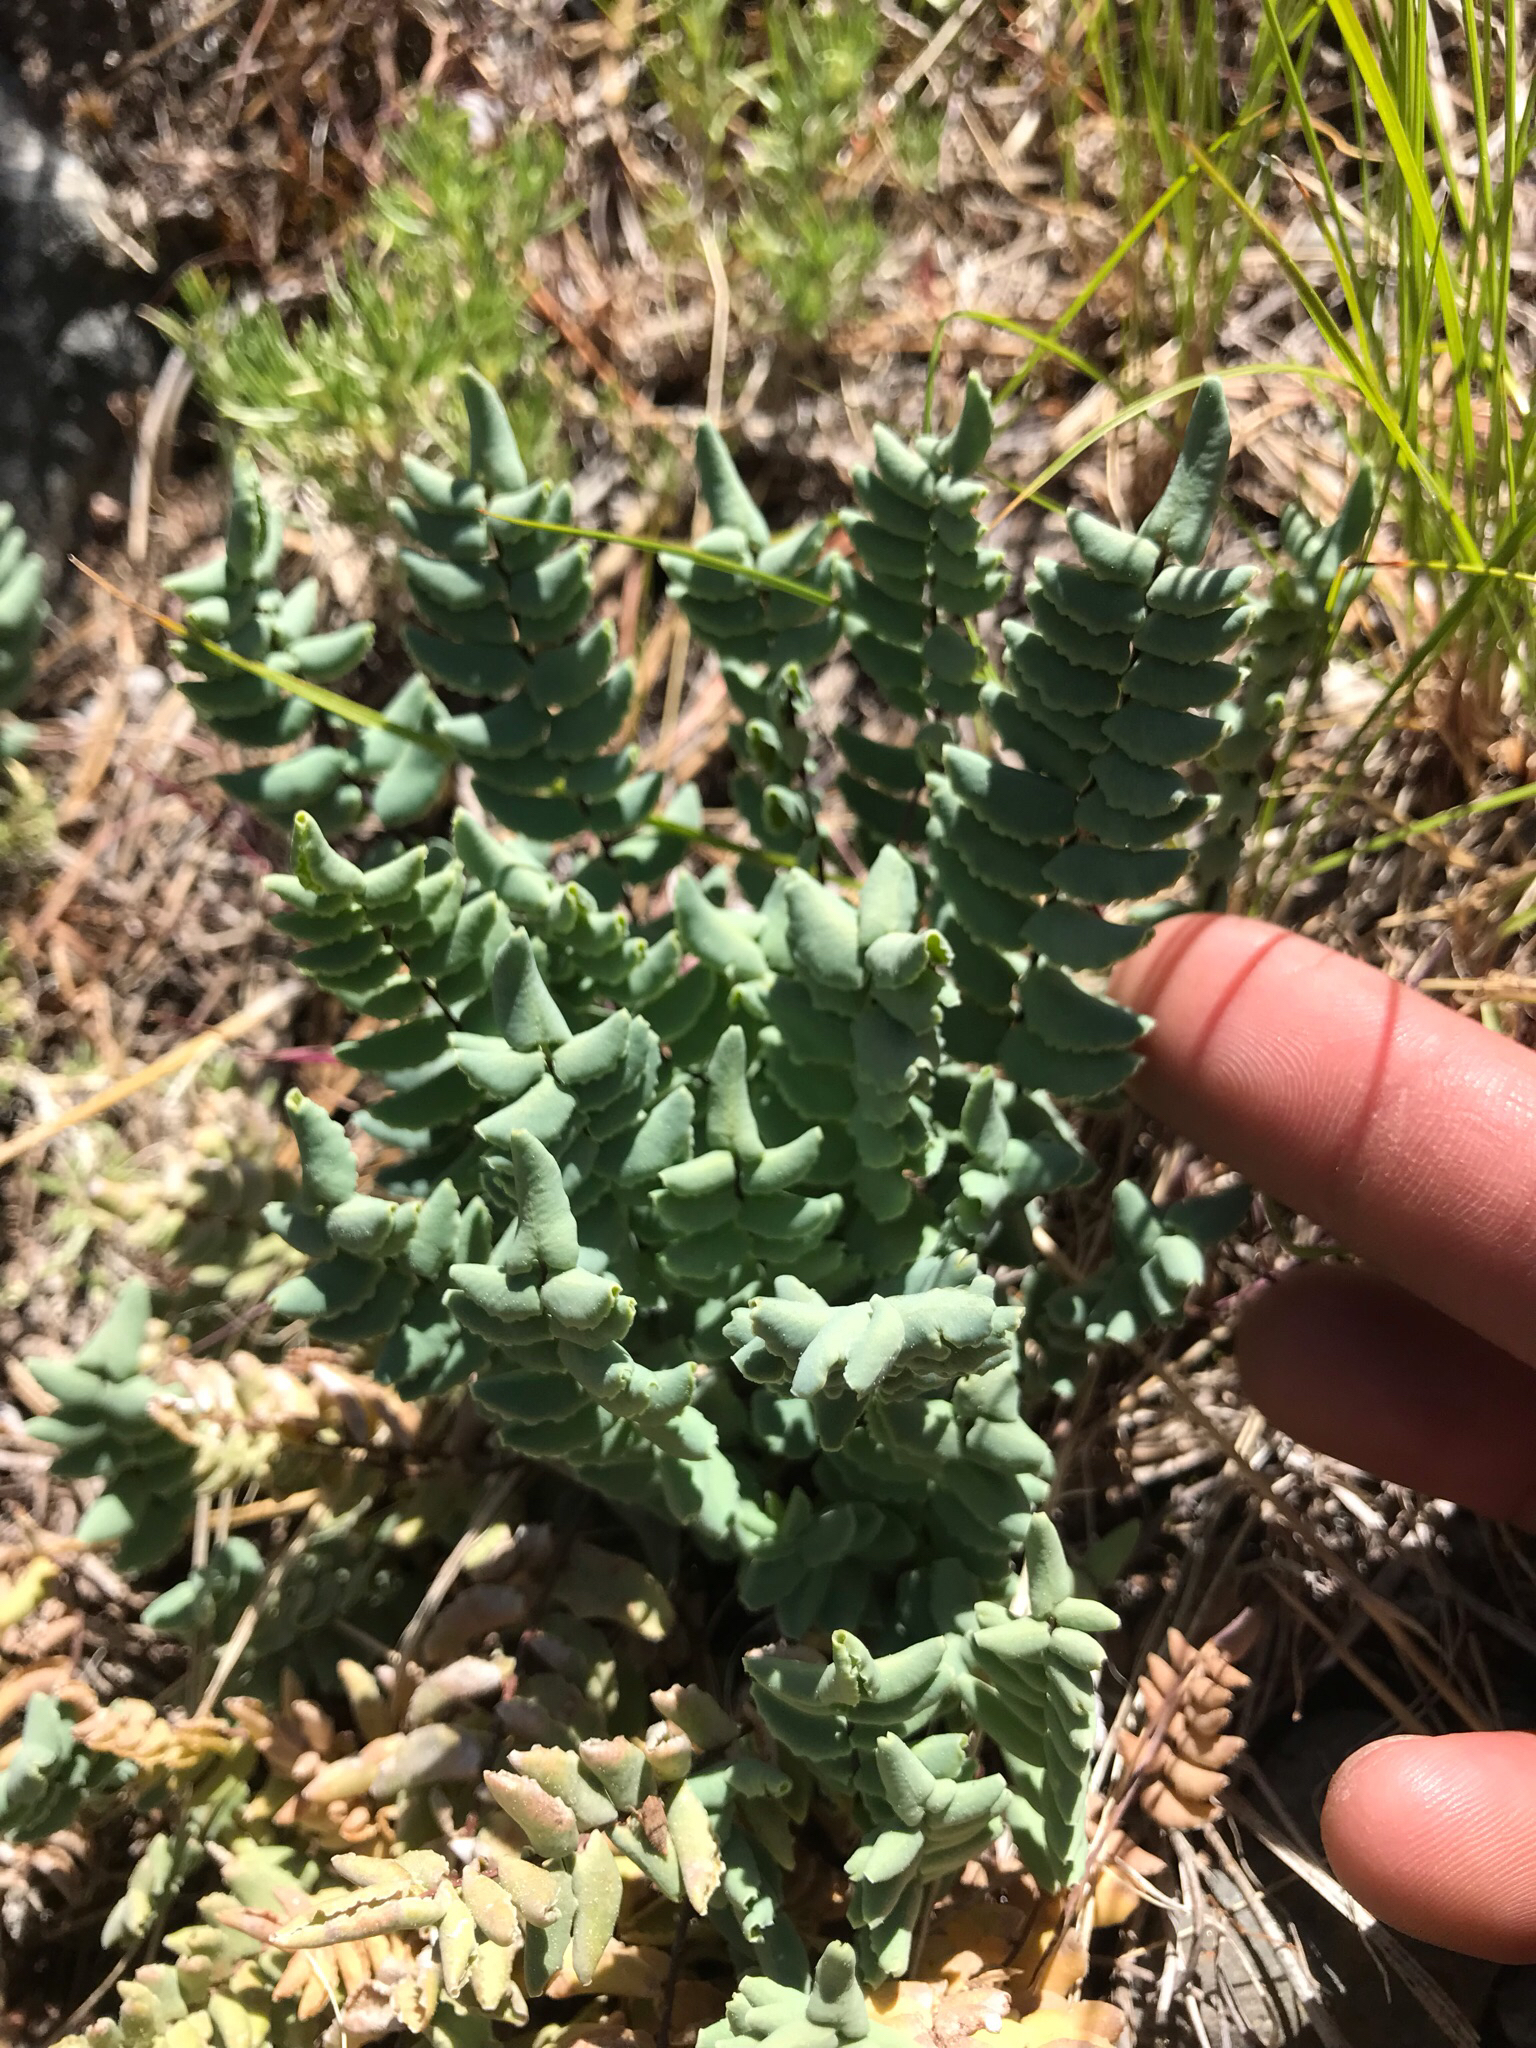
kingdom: Plantae
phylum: Tracheophyta
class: Polypodiopsida
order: Polypodiales
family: Pteridaceae
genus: Pellaea
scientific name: Pellaea bridgesii
